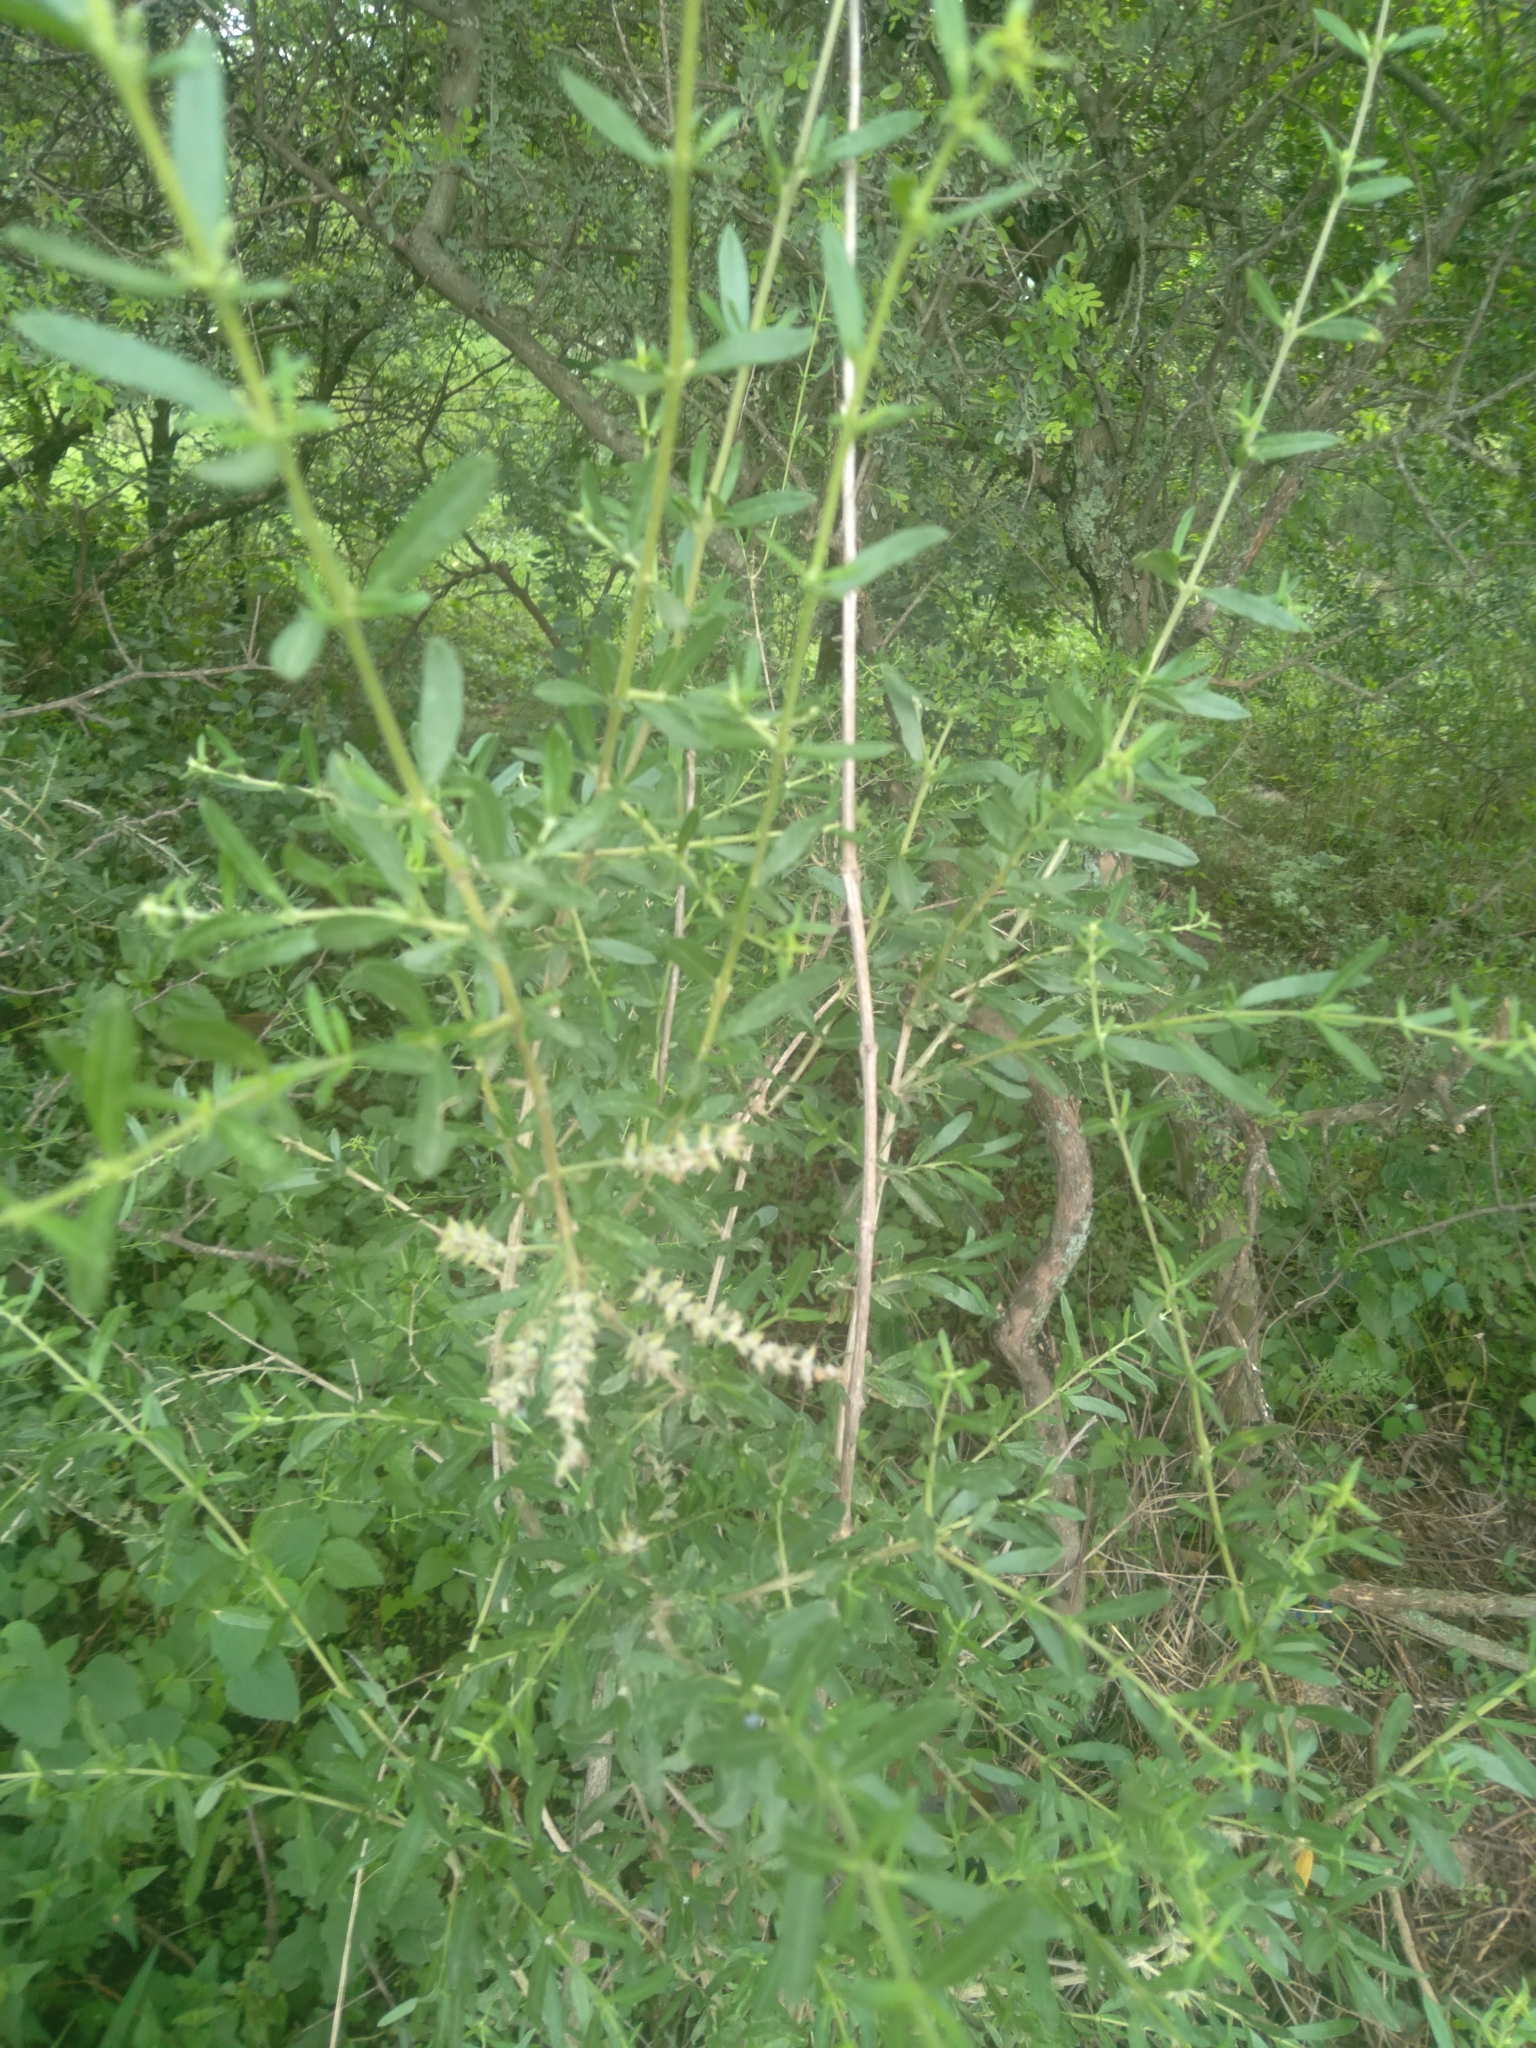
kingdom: Plantae
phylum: Tracheophyta
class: Magnoliopsida
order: Lamiales
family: Verbenaceae
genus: Aloysia
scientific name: Aloysia gratissima
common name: Common bee-brush
